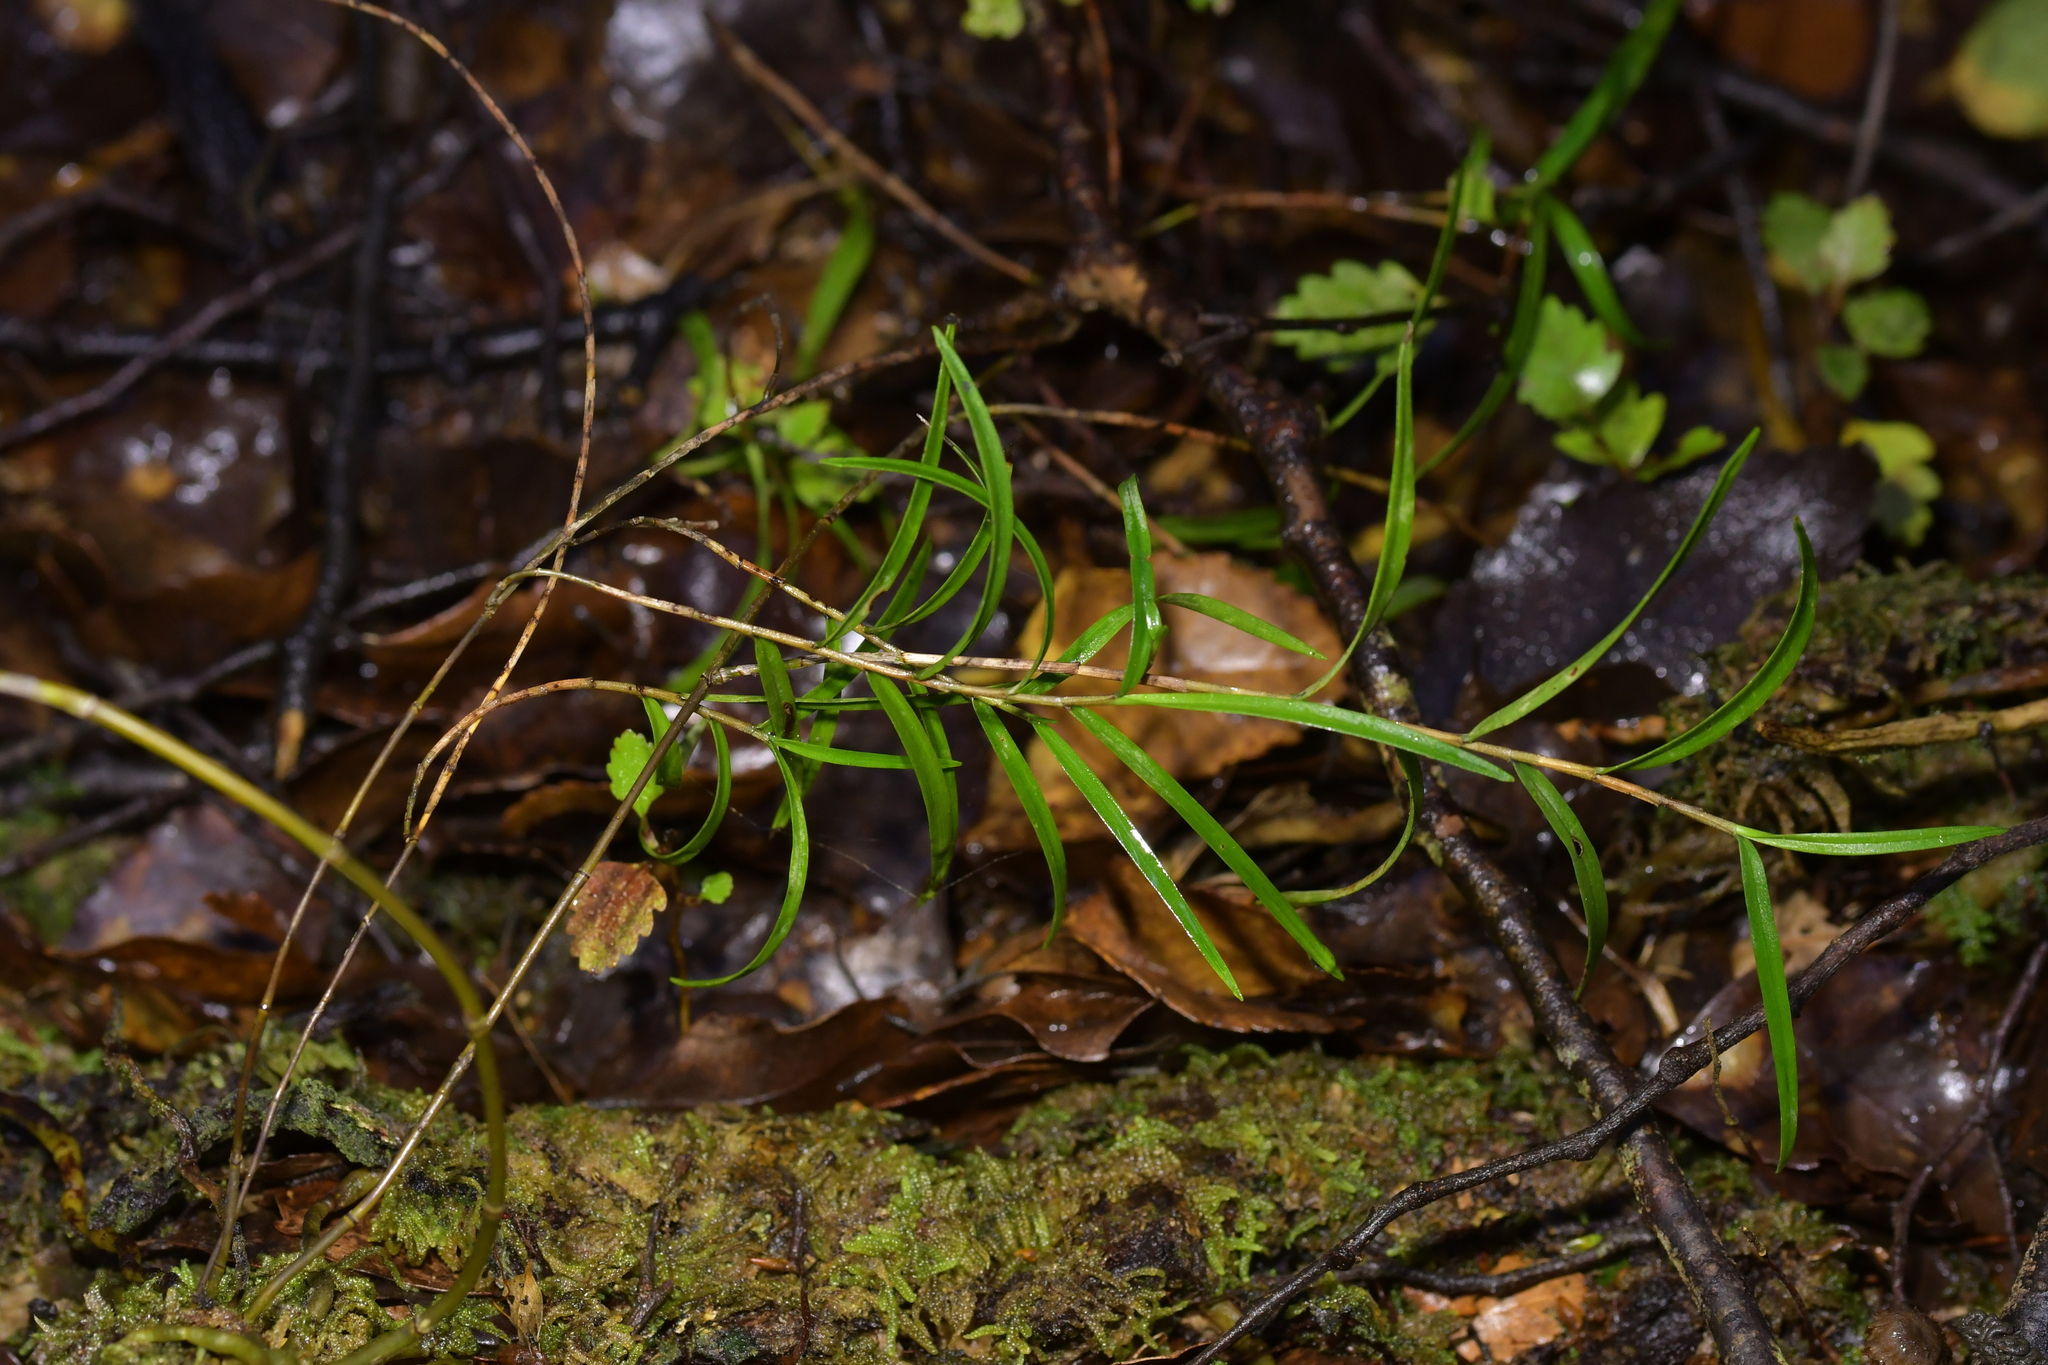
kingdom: Plantae
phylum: Tracheophyta
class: Liliopsida
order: Asparagales
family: Orchidaceae
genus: Dendrobium
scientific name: Dendrobium cunninghamii
